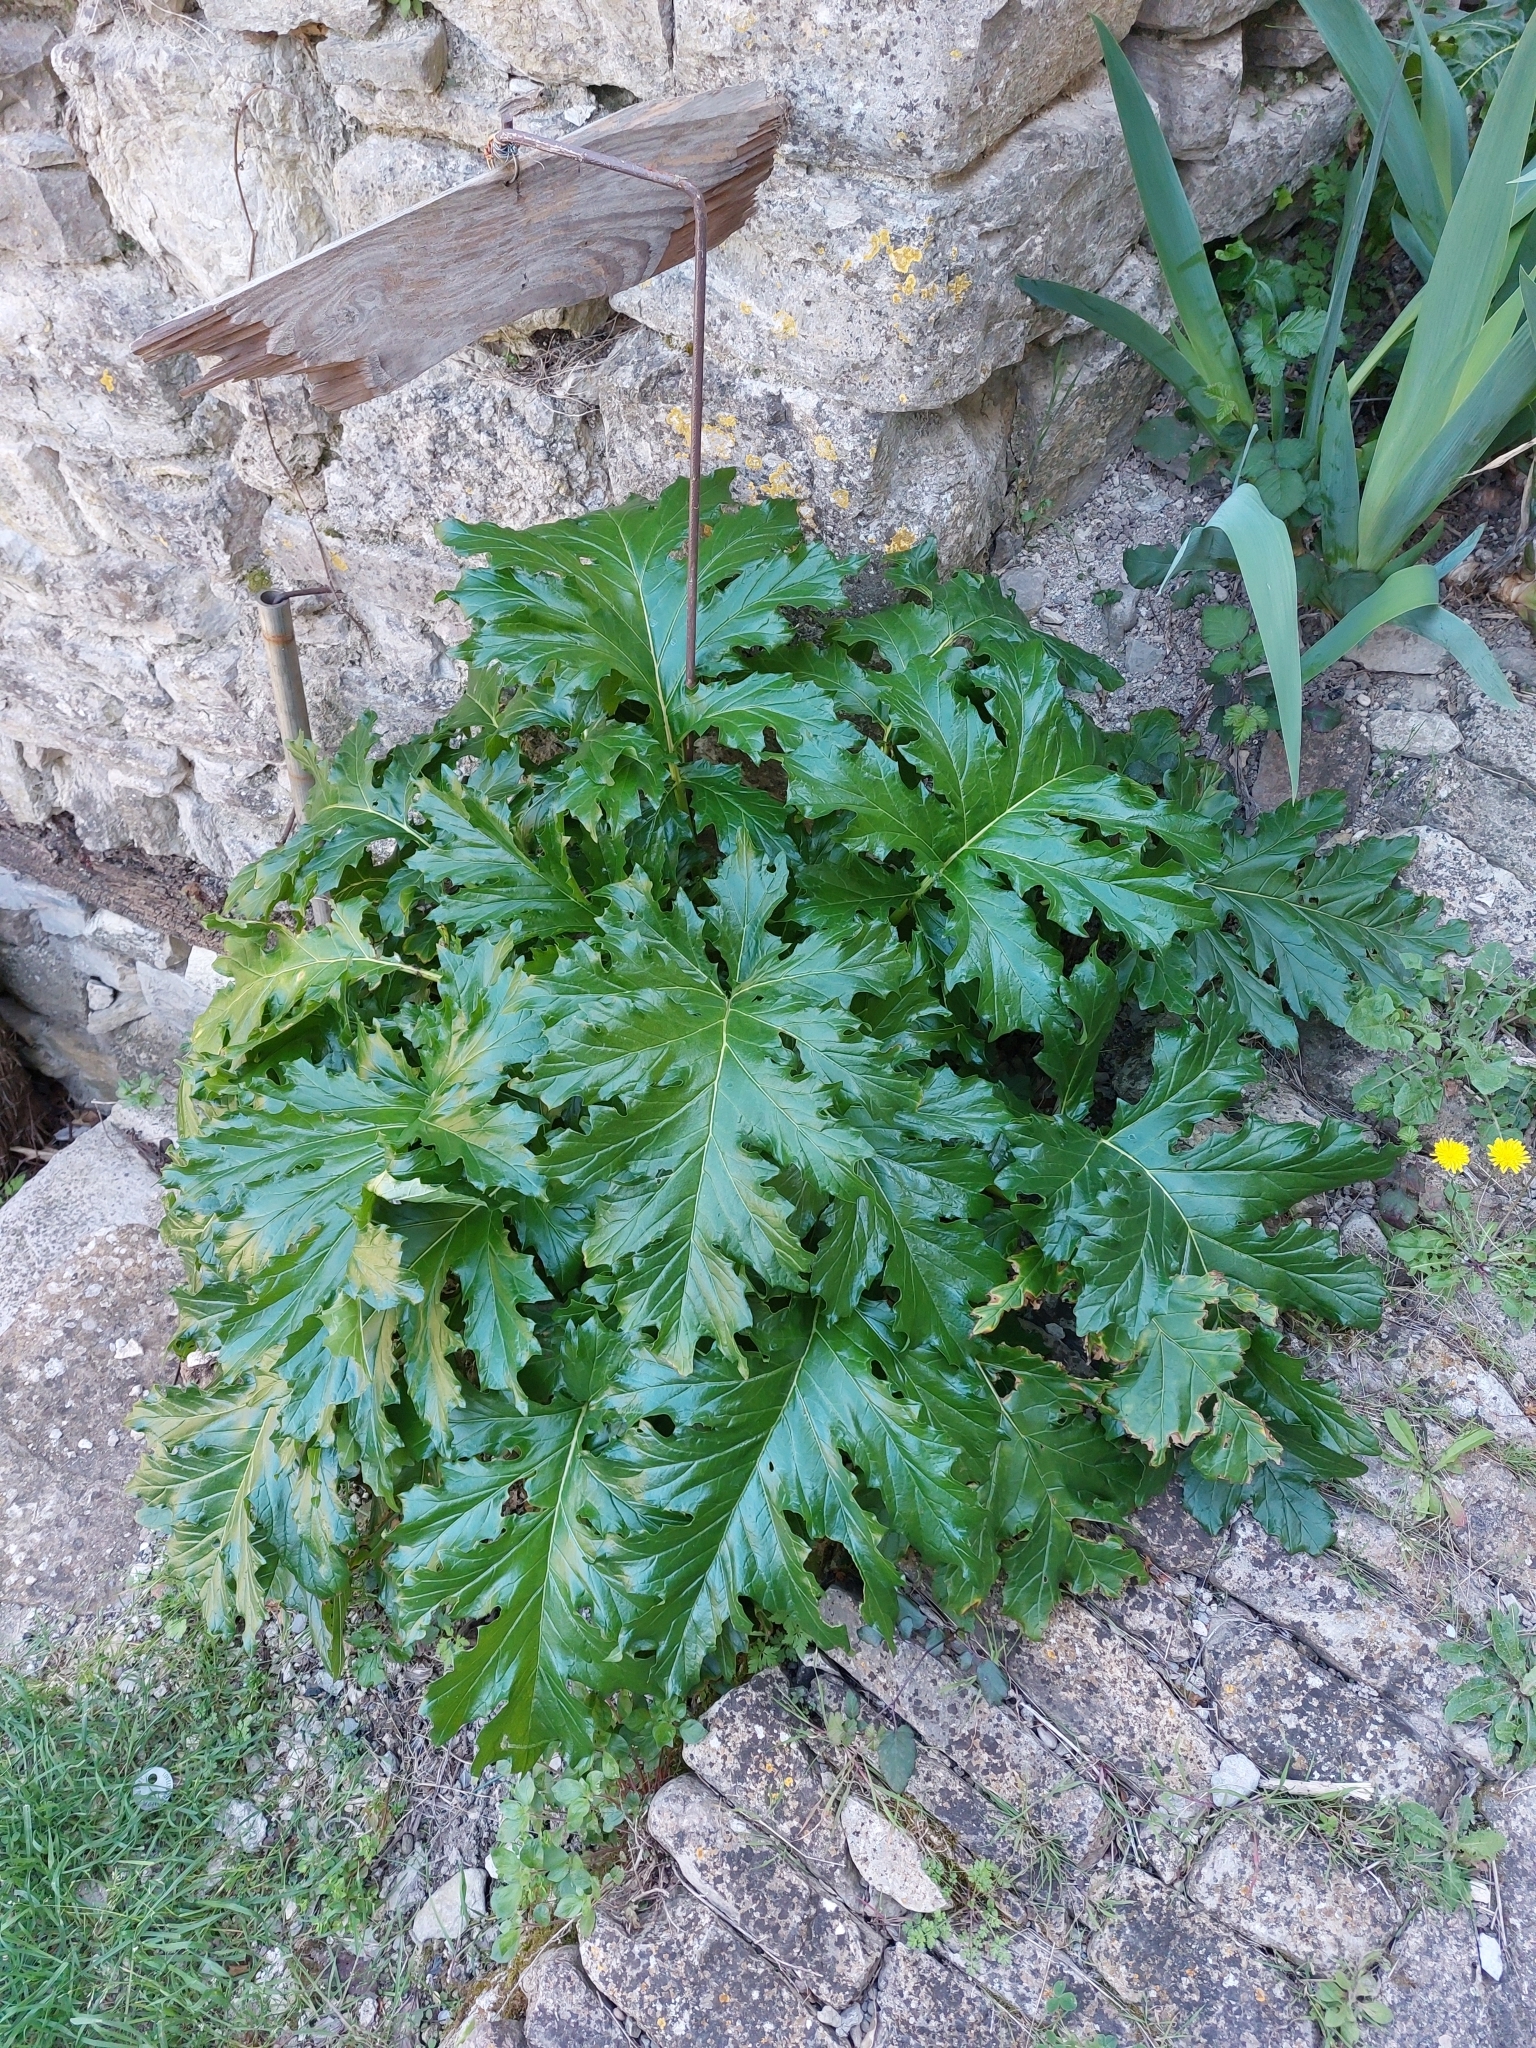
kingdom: Plantae
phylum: Tracheophyta
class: Magnoliopsida
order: Lamiales
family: Acanthaceae
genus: Acanthus
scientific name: Acanthus mollis
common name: Bear's-breech
